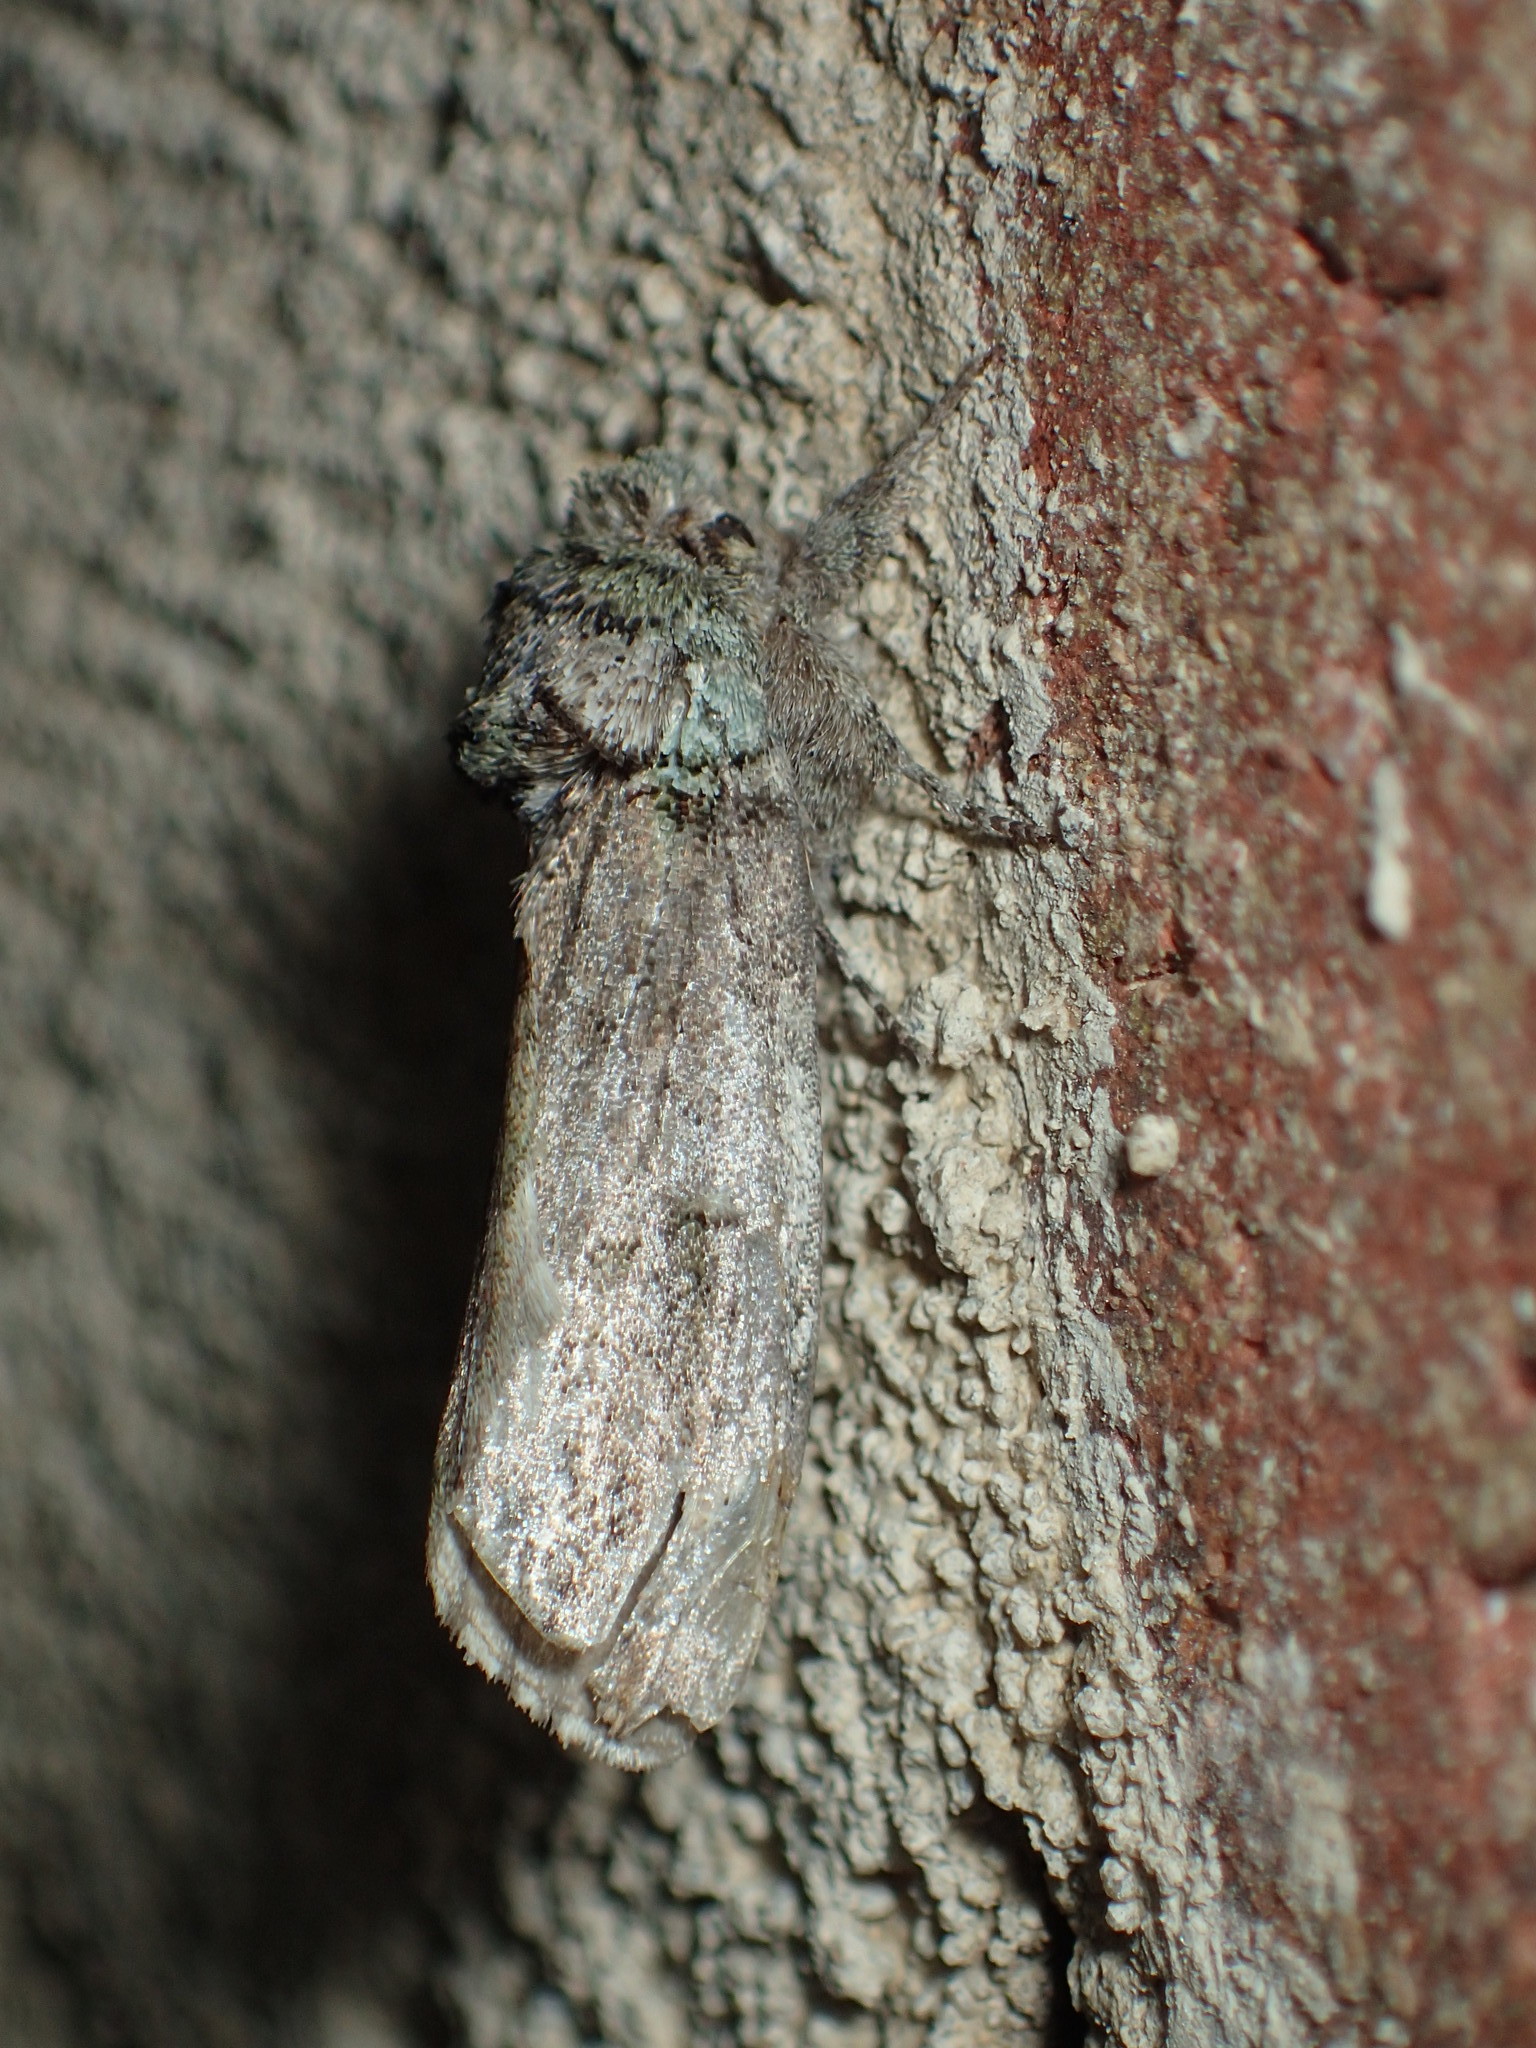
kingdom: Animalia
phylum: Arthropoda
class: Insecta
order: Lepidoptera
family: Notodontidae
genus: Schizura
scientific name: Schizura
